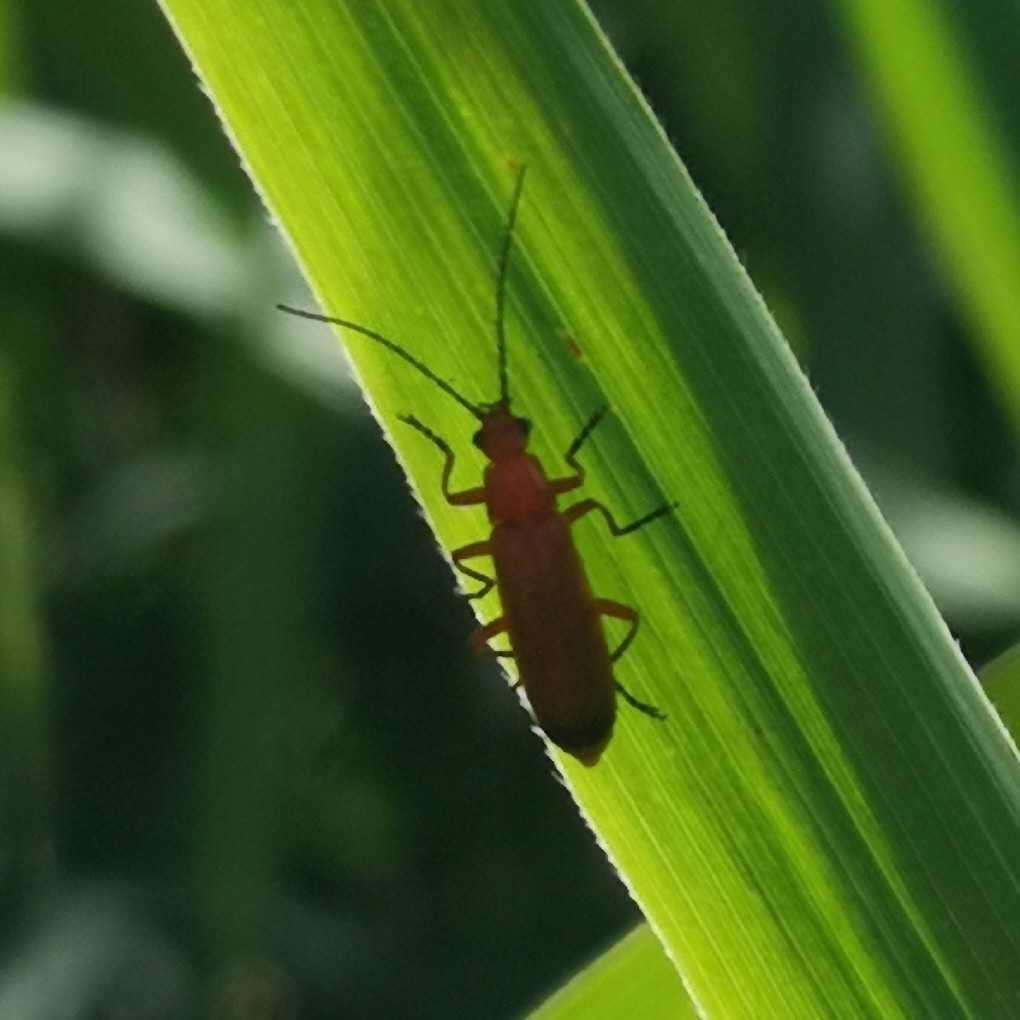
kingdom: Animalia
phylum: Arthropoda
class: Insecta
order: Coleoptera
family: Cantharidae
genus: Rhagonycha
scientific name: Rhagonycha fulva
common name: Common red soldier beetle
